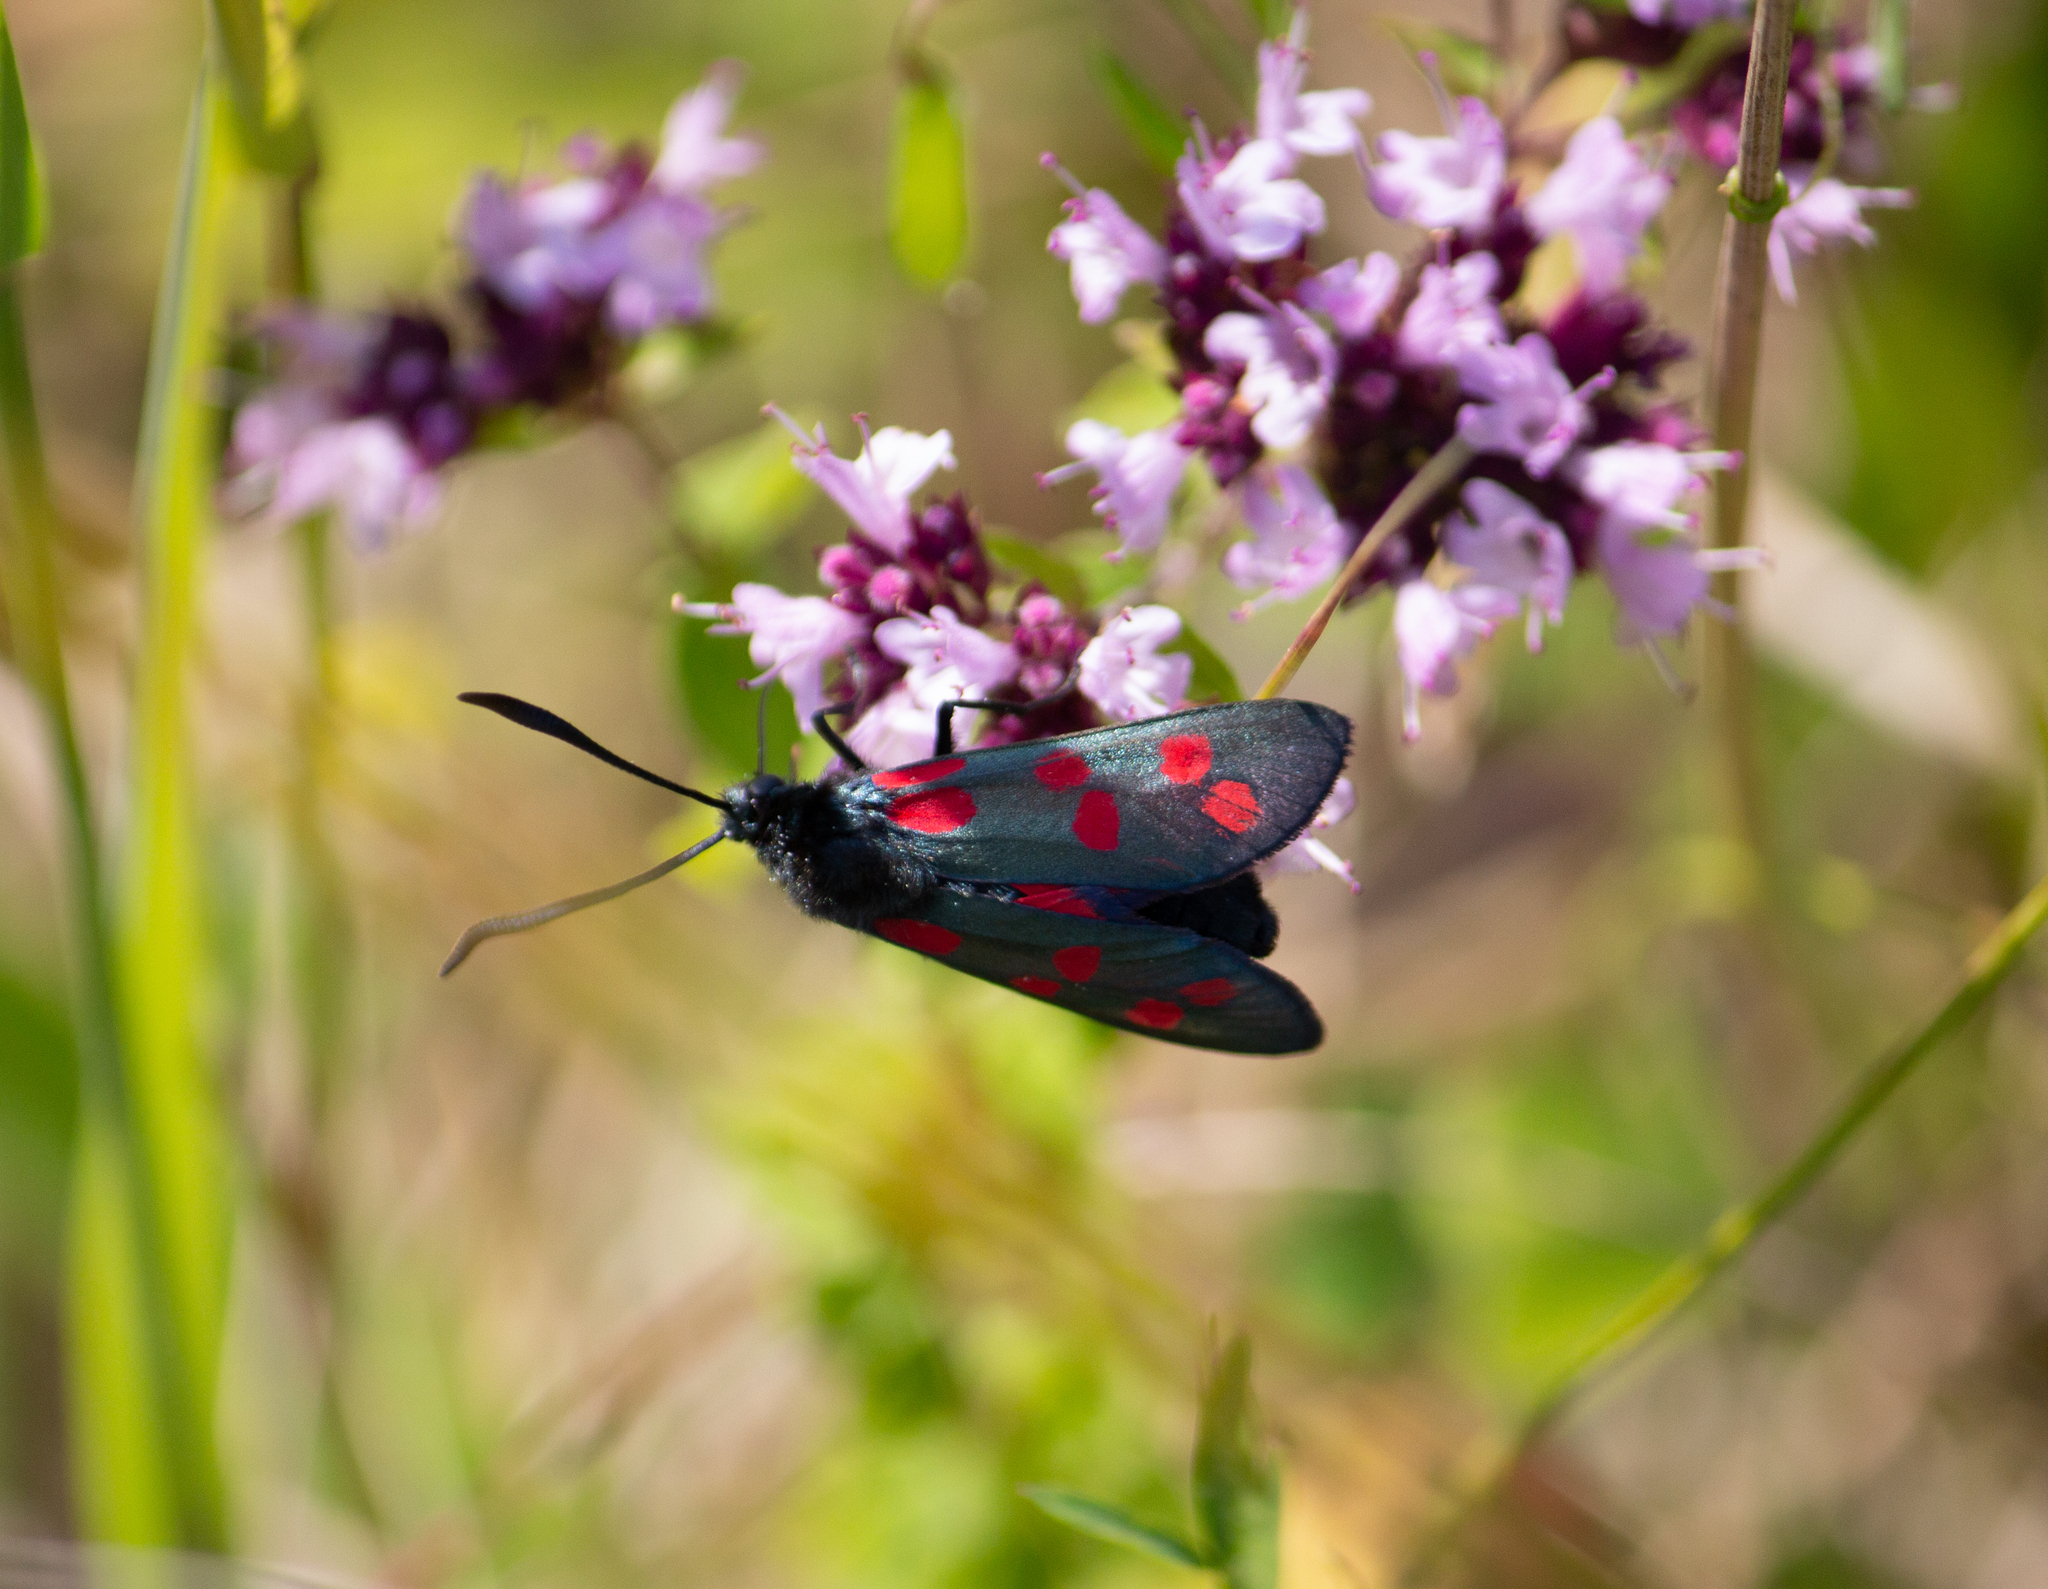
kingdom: Animalia
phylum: Arthropoda
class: Insecta
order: Lepidoptera
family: Zygaenidae
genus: Zygaena
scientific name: Zygaena filipendulae
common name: Six-spot burnet
